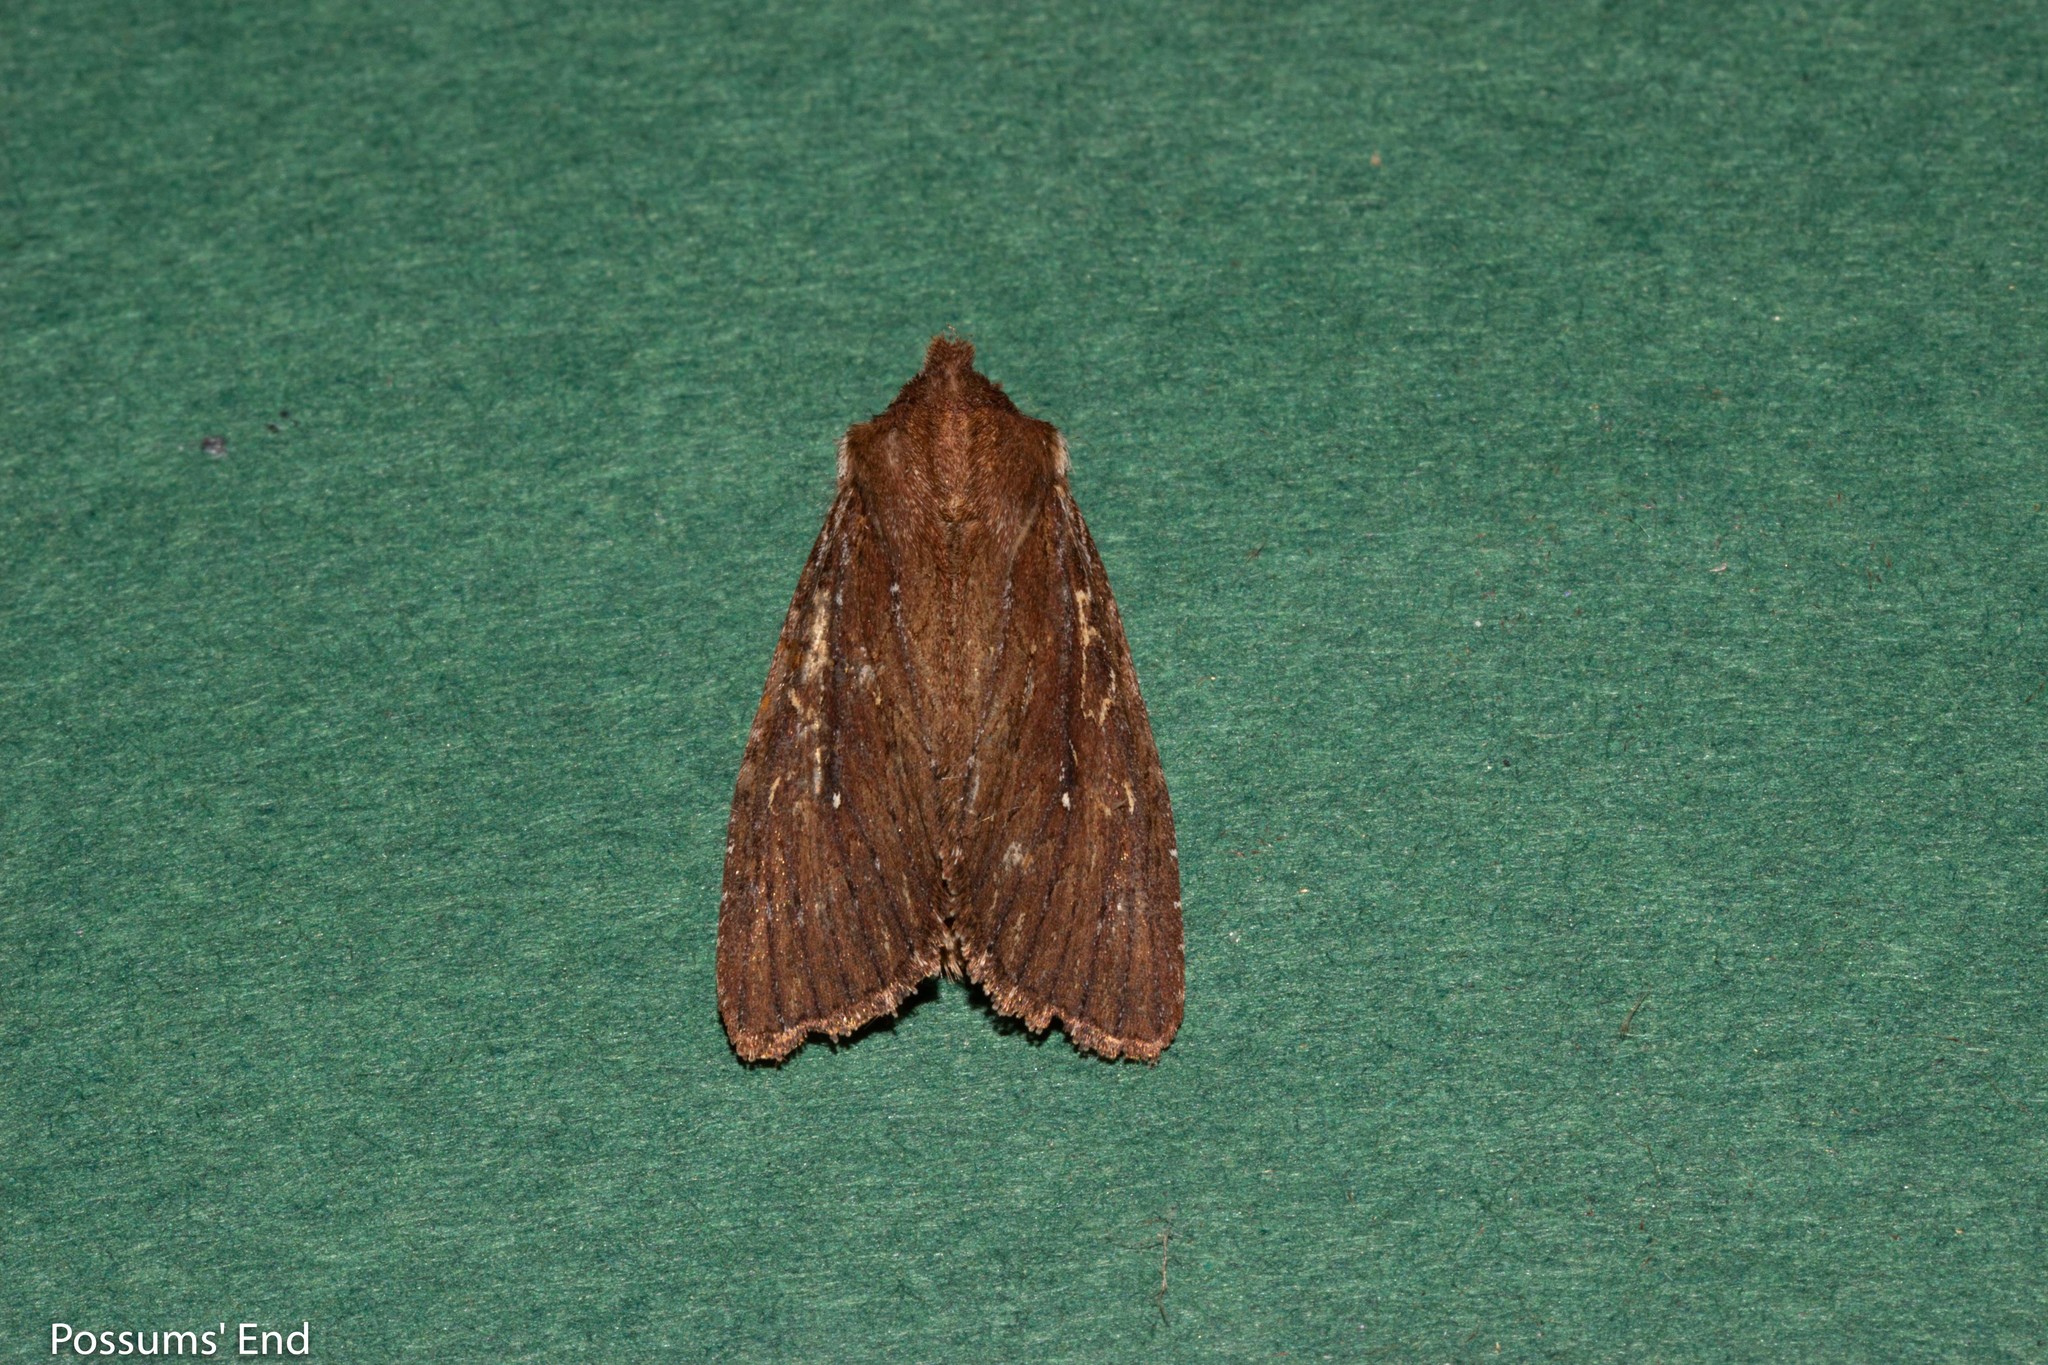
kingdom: Animalia
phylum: Arthropoda
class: Insecta
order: Lepidoptera
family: Noctuidae
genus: Ichneutica
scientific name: Ichneutica
